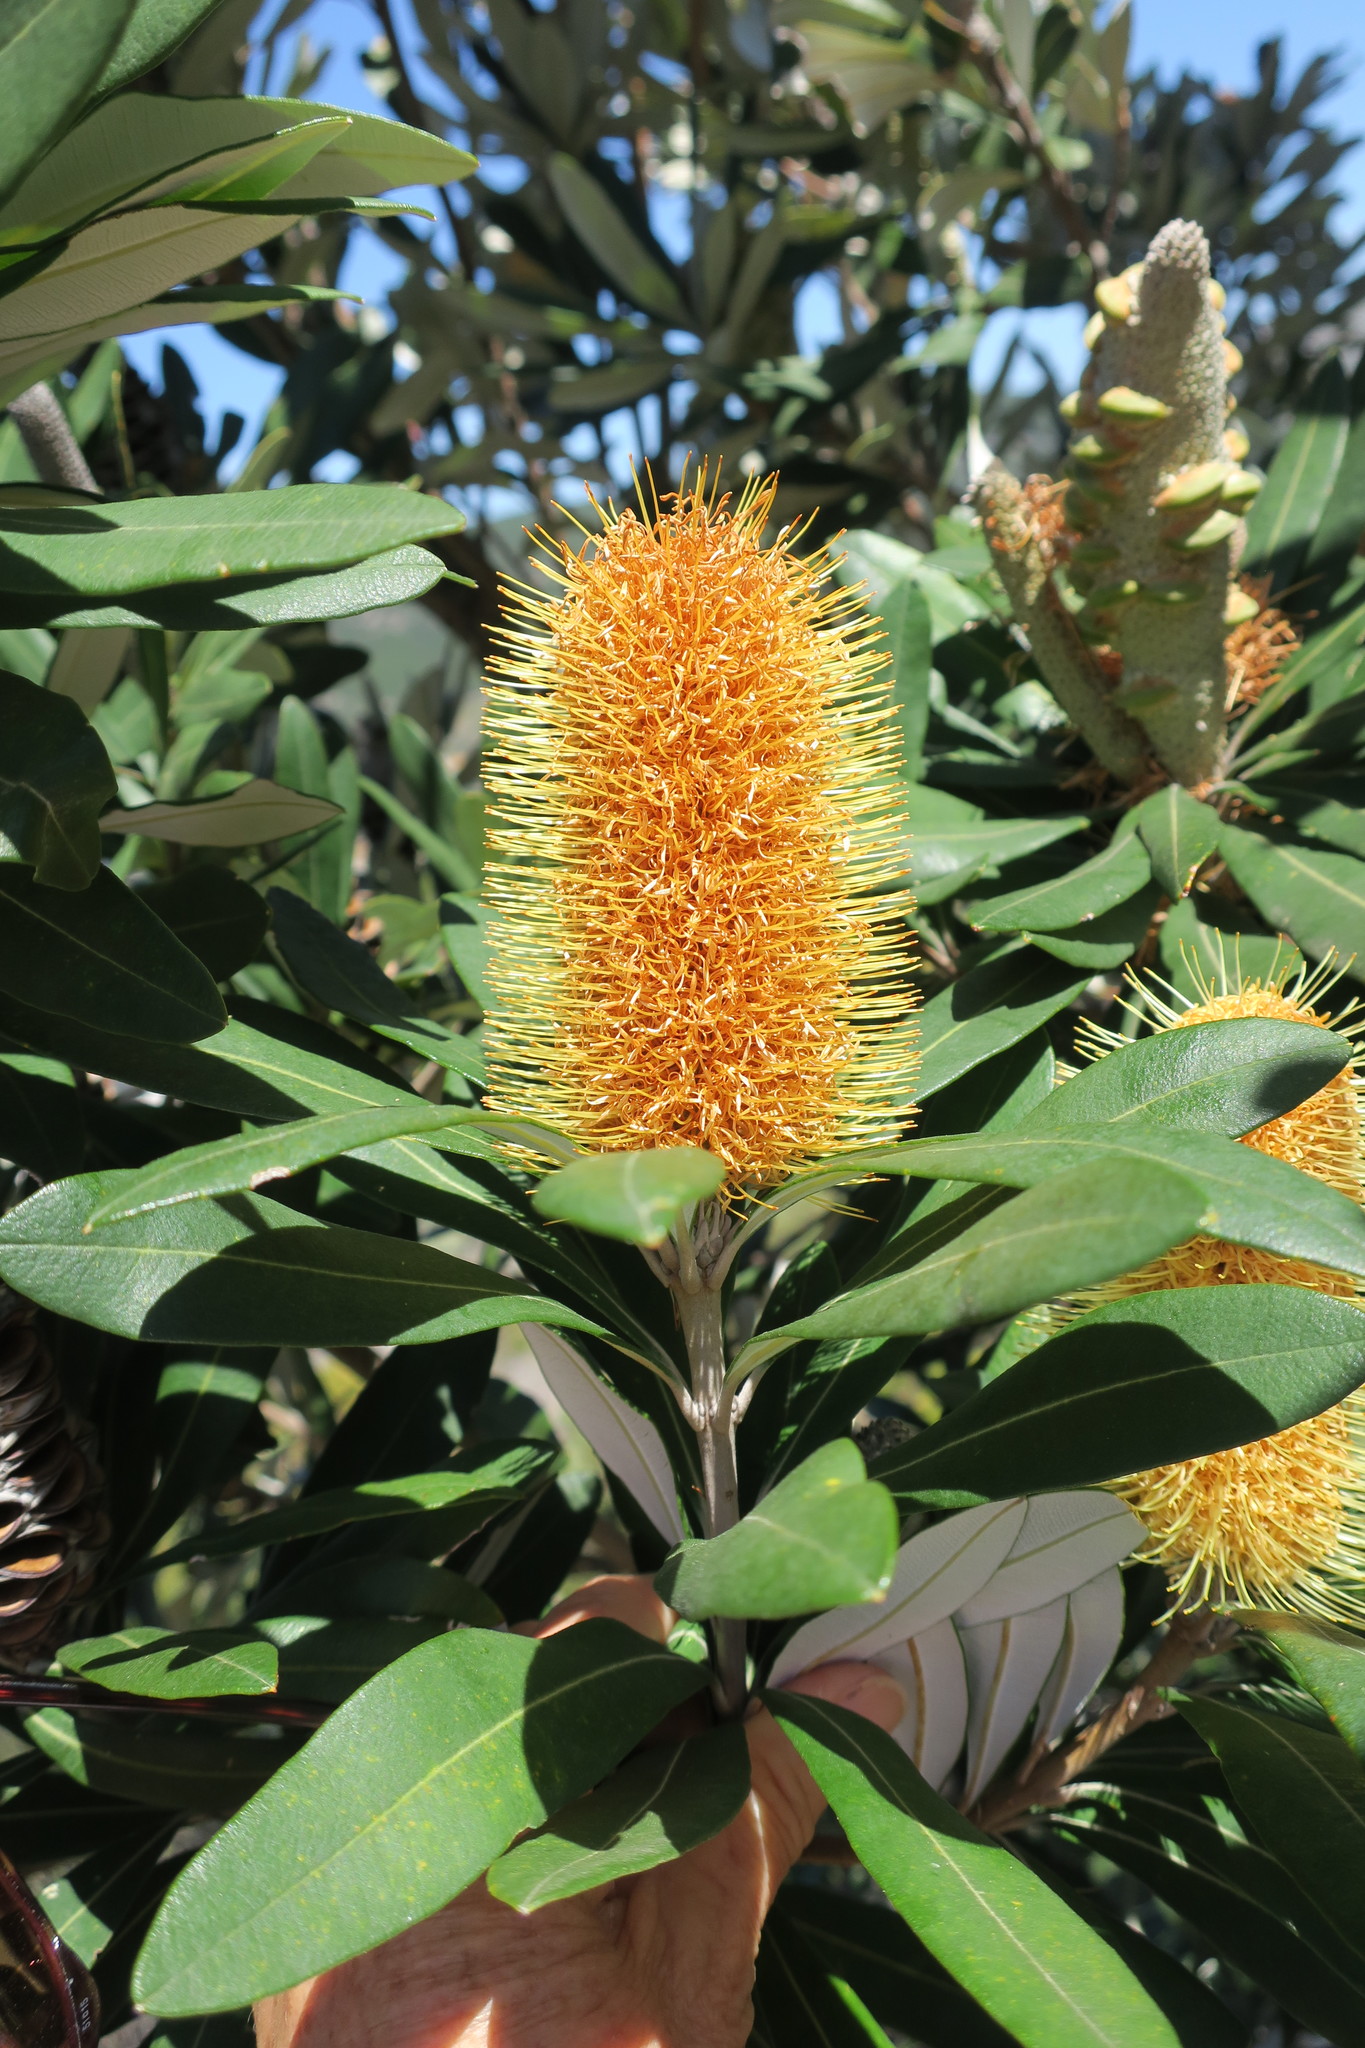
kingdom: Plantae
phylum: Tracheophyta
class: Magnoliopsida
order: Proteales
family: Proteaceae
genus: Banksia
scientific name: Banksia integrifolia
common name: White-honeysuckle
